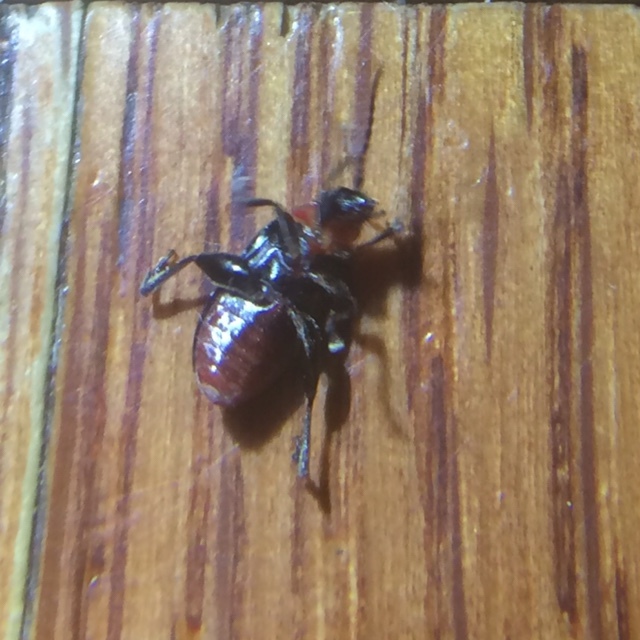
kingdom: Animalia
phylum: Arthropoda
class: Insecta
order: Coleoptera
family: Chrysomelidae
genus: Disonycha
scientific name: Disonycha xanthomelas
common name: Spinach flea beetle
